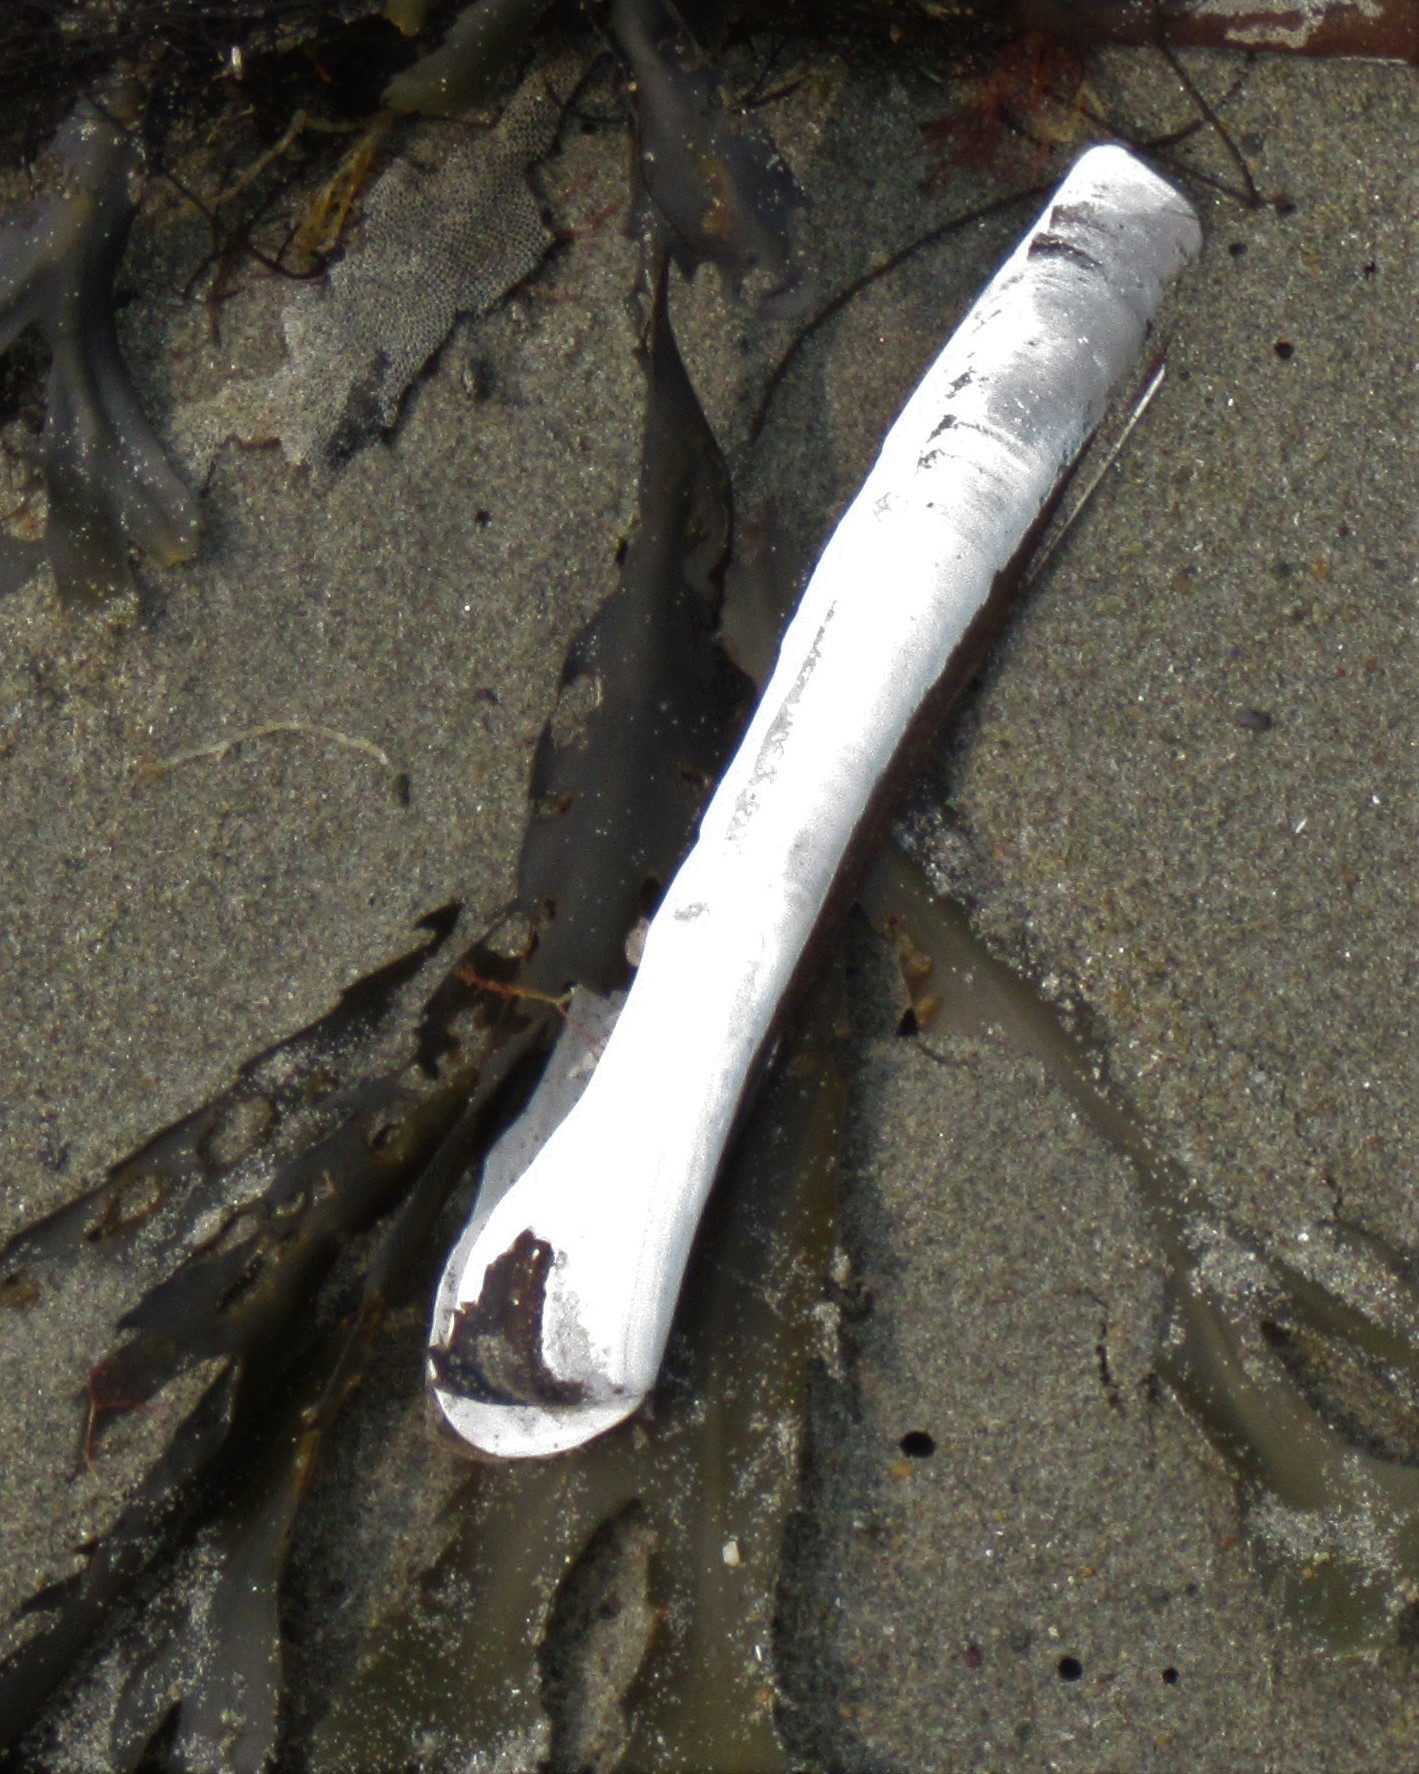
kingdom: Animalia
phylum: Mollusca
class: Bivalvia
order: Adapedonta
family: Pharidae
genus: Ensis
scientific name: Ensis leei
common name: American jack knife clam
